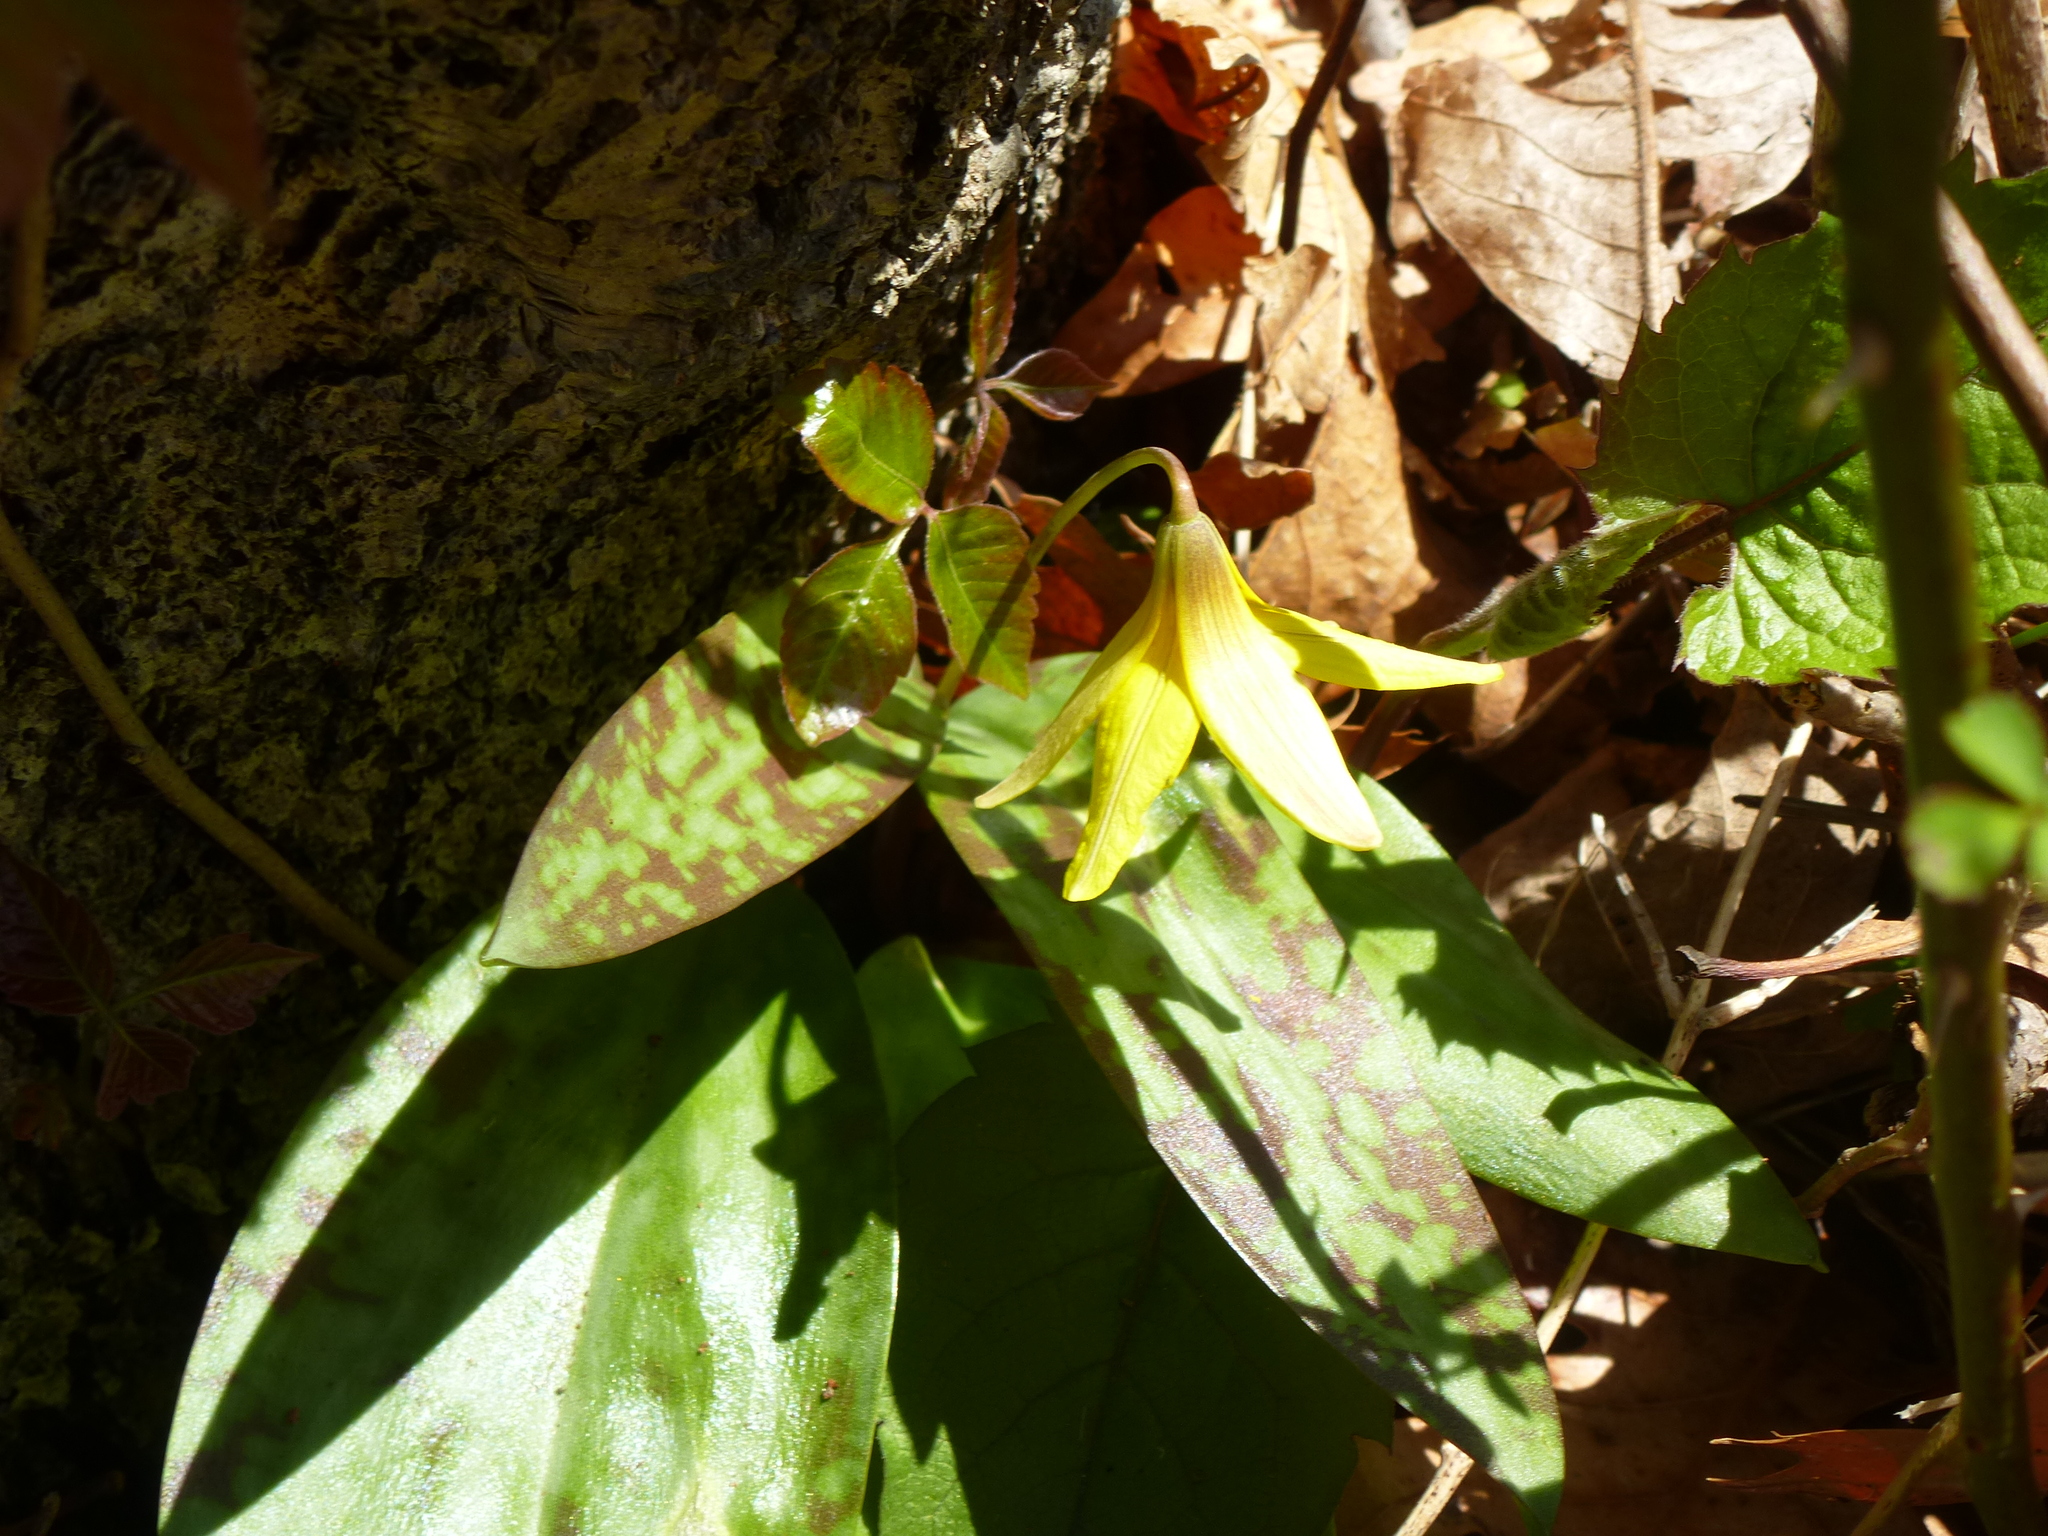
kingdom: Plantae
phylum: Tracheophyta
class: Liliopsida
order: Liliales
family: Liliaceae
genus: Erythronium
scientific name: Erythronium americanum
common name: Yellow adder's-tongue
